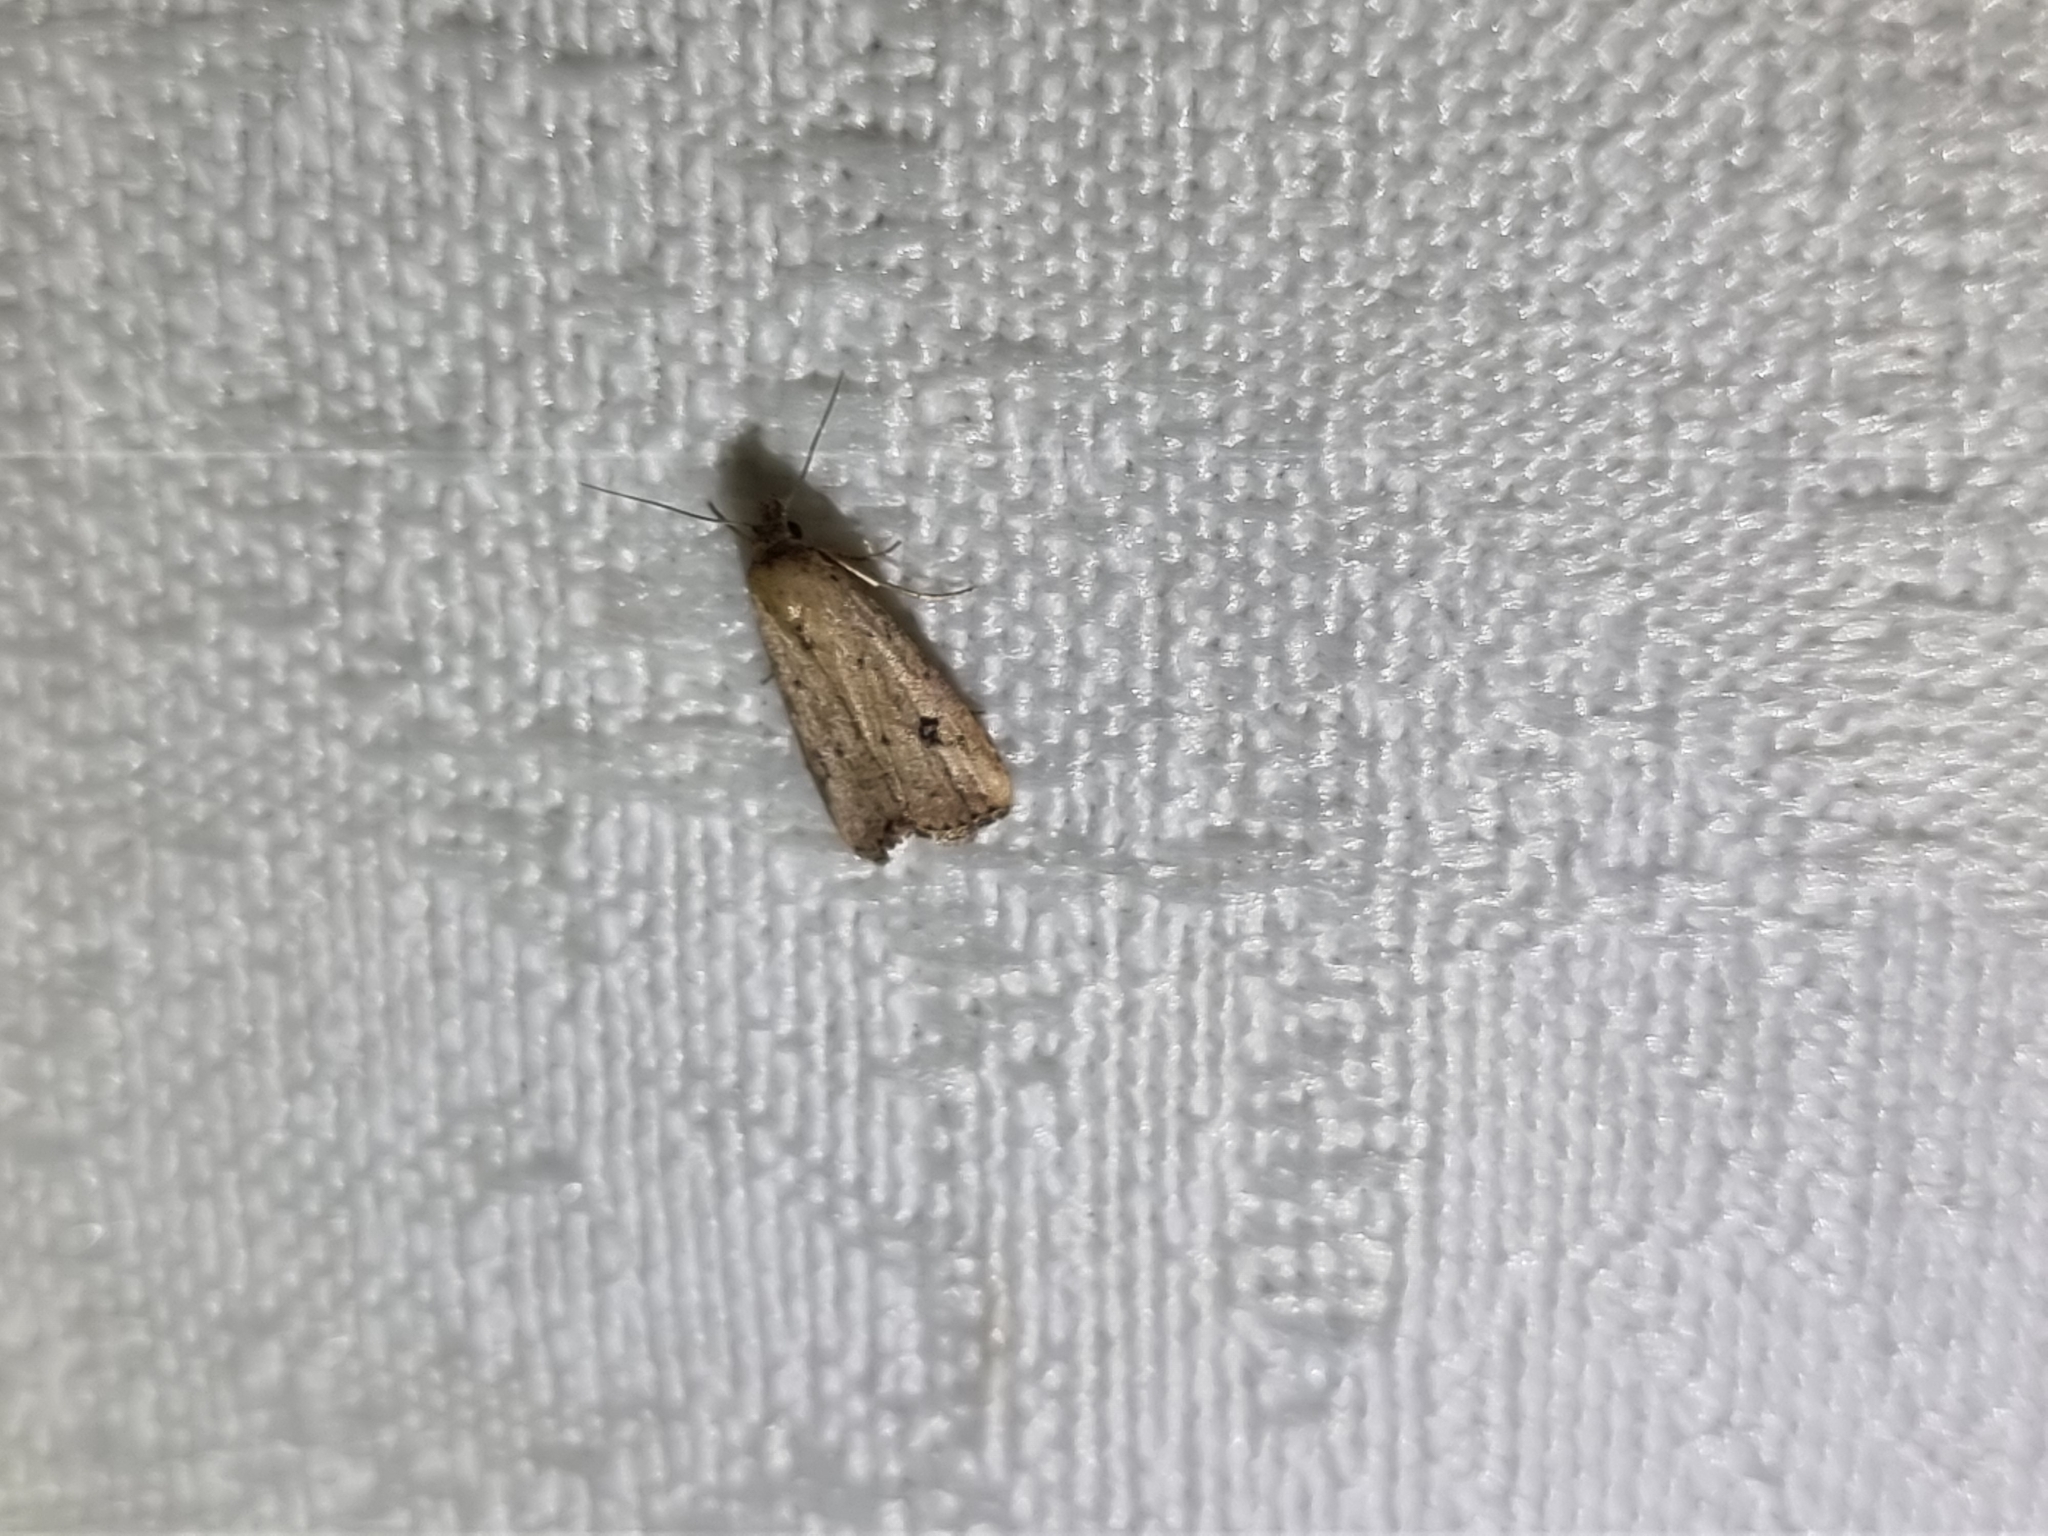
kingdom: Animalia
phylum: Arthropoda
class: Insecta
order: Lepidoptera
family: Erebidae
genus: Luceria
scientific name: Luceria oculalis
